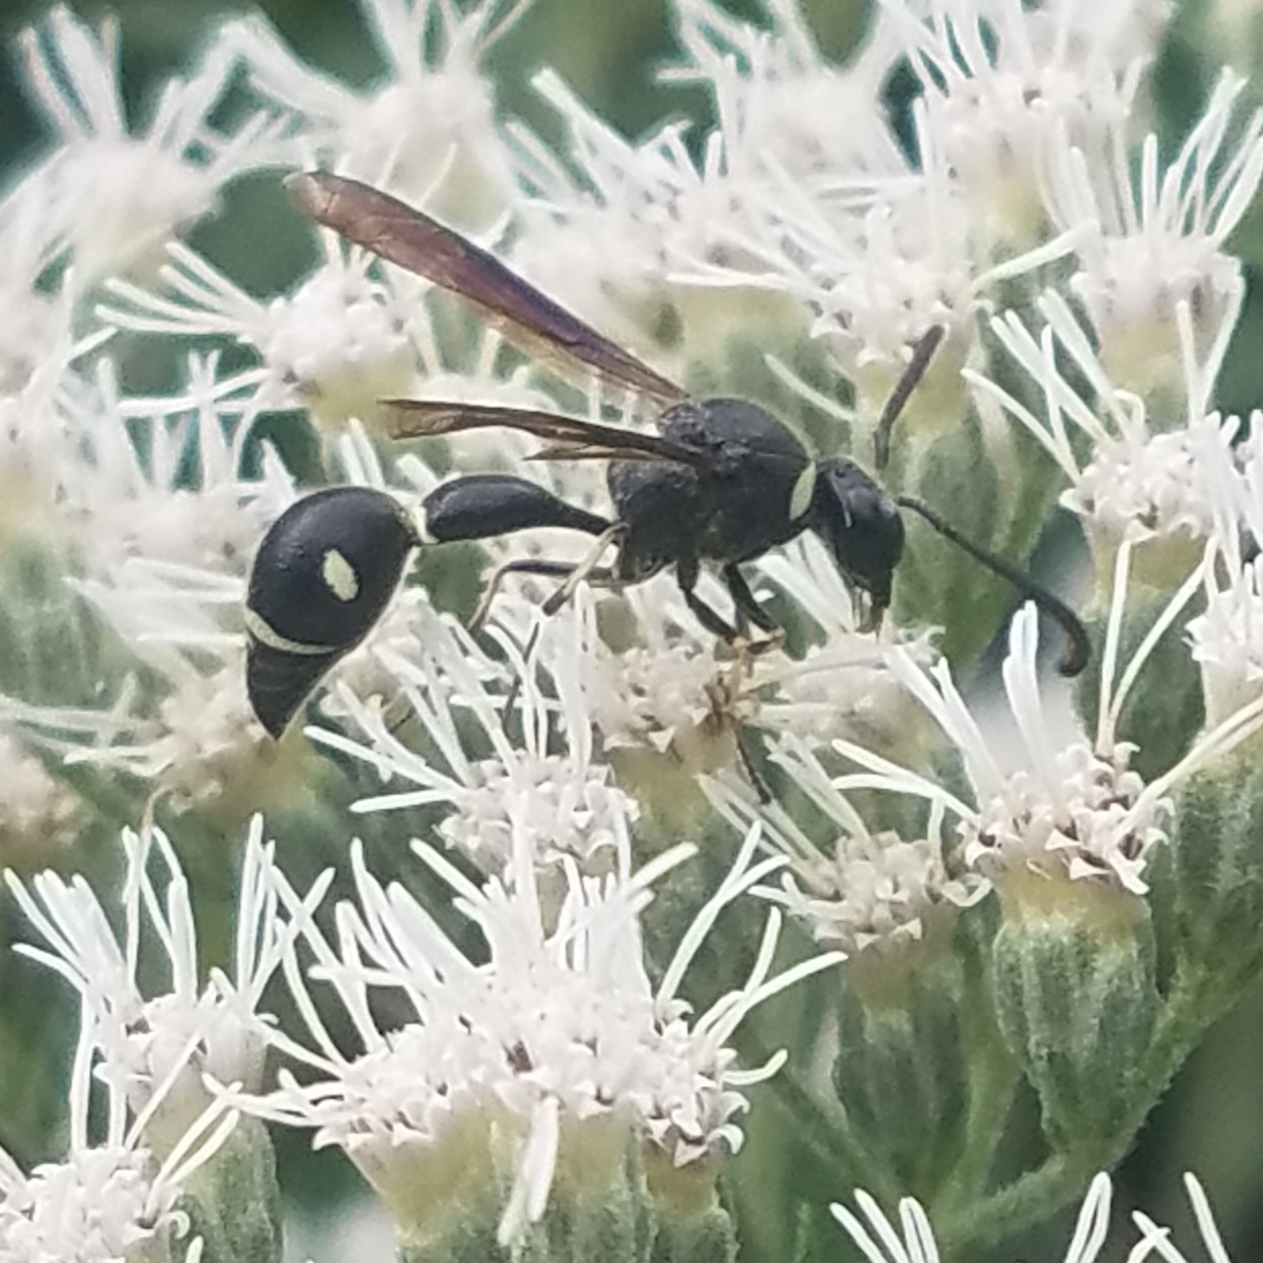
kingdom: Animalia
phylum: Arthropoda
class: Insecta
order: Hymenoptera
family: Vespidae
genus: Eumenes
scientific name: Eumenes fraternus
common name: Fraternal potter wasp
